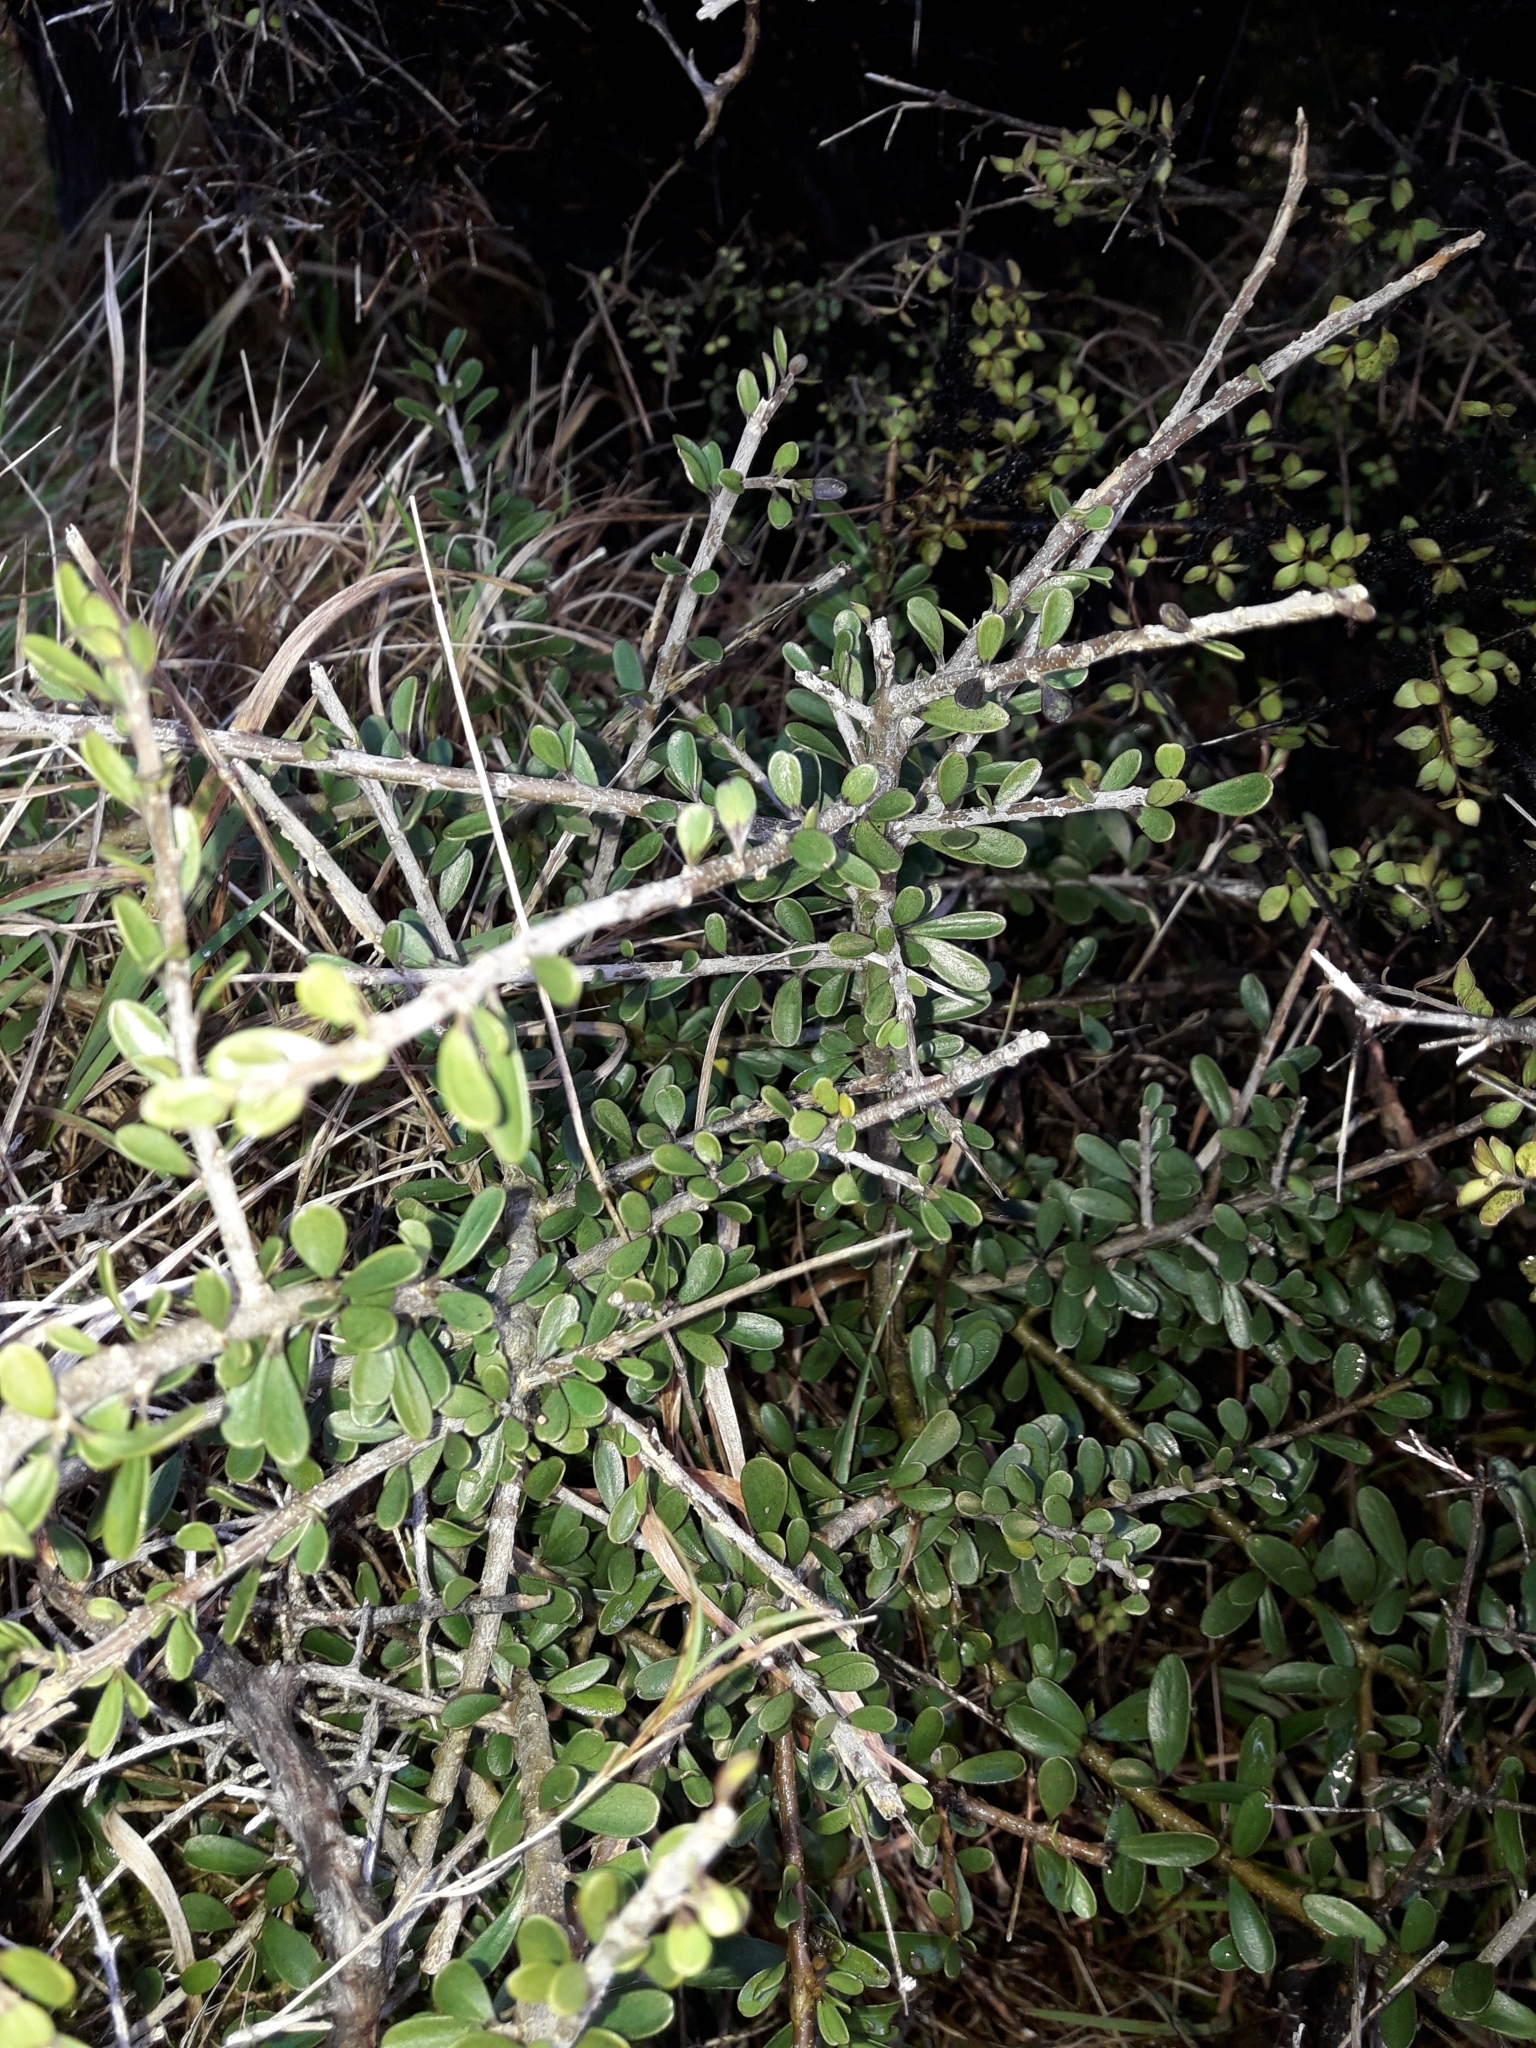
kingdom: Plantae
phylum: Tracheophyta
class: Magnoliopsida
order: Malpighiales
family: Violaceae
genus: Melicytus
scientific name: Melicytus crassifolius
